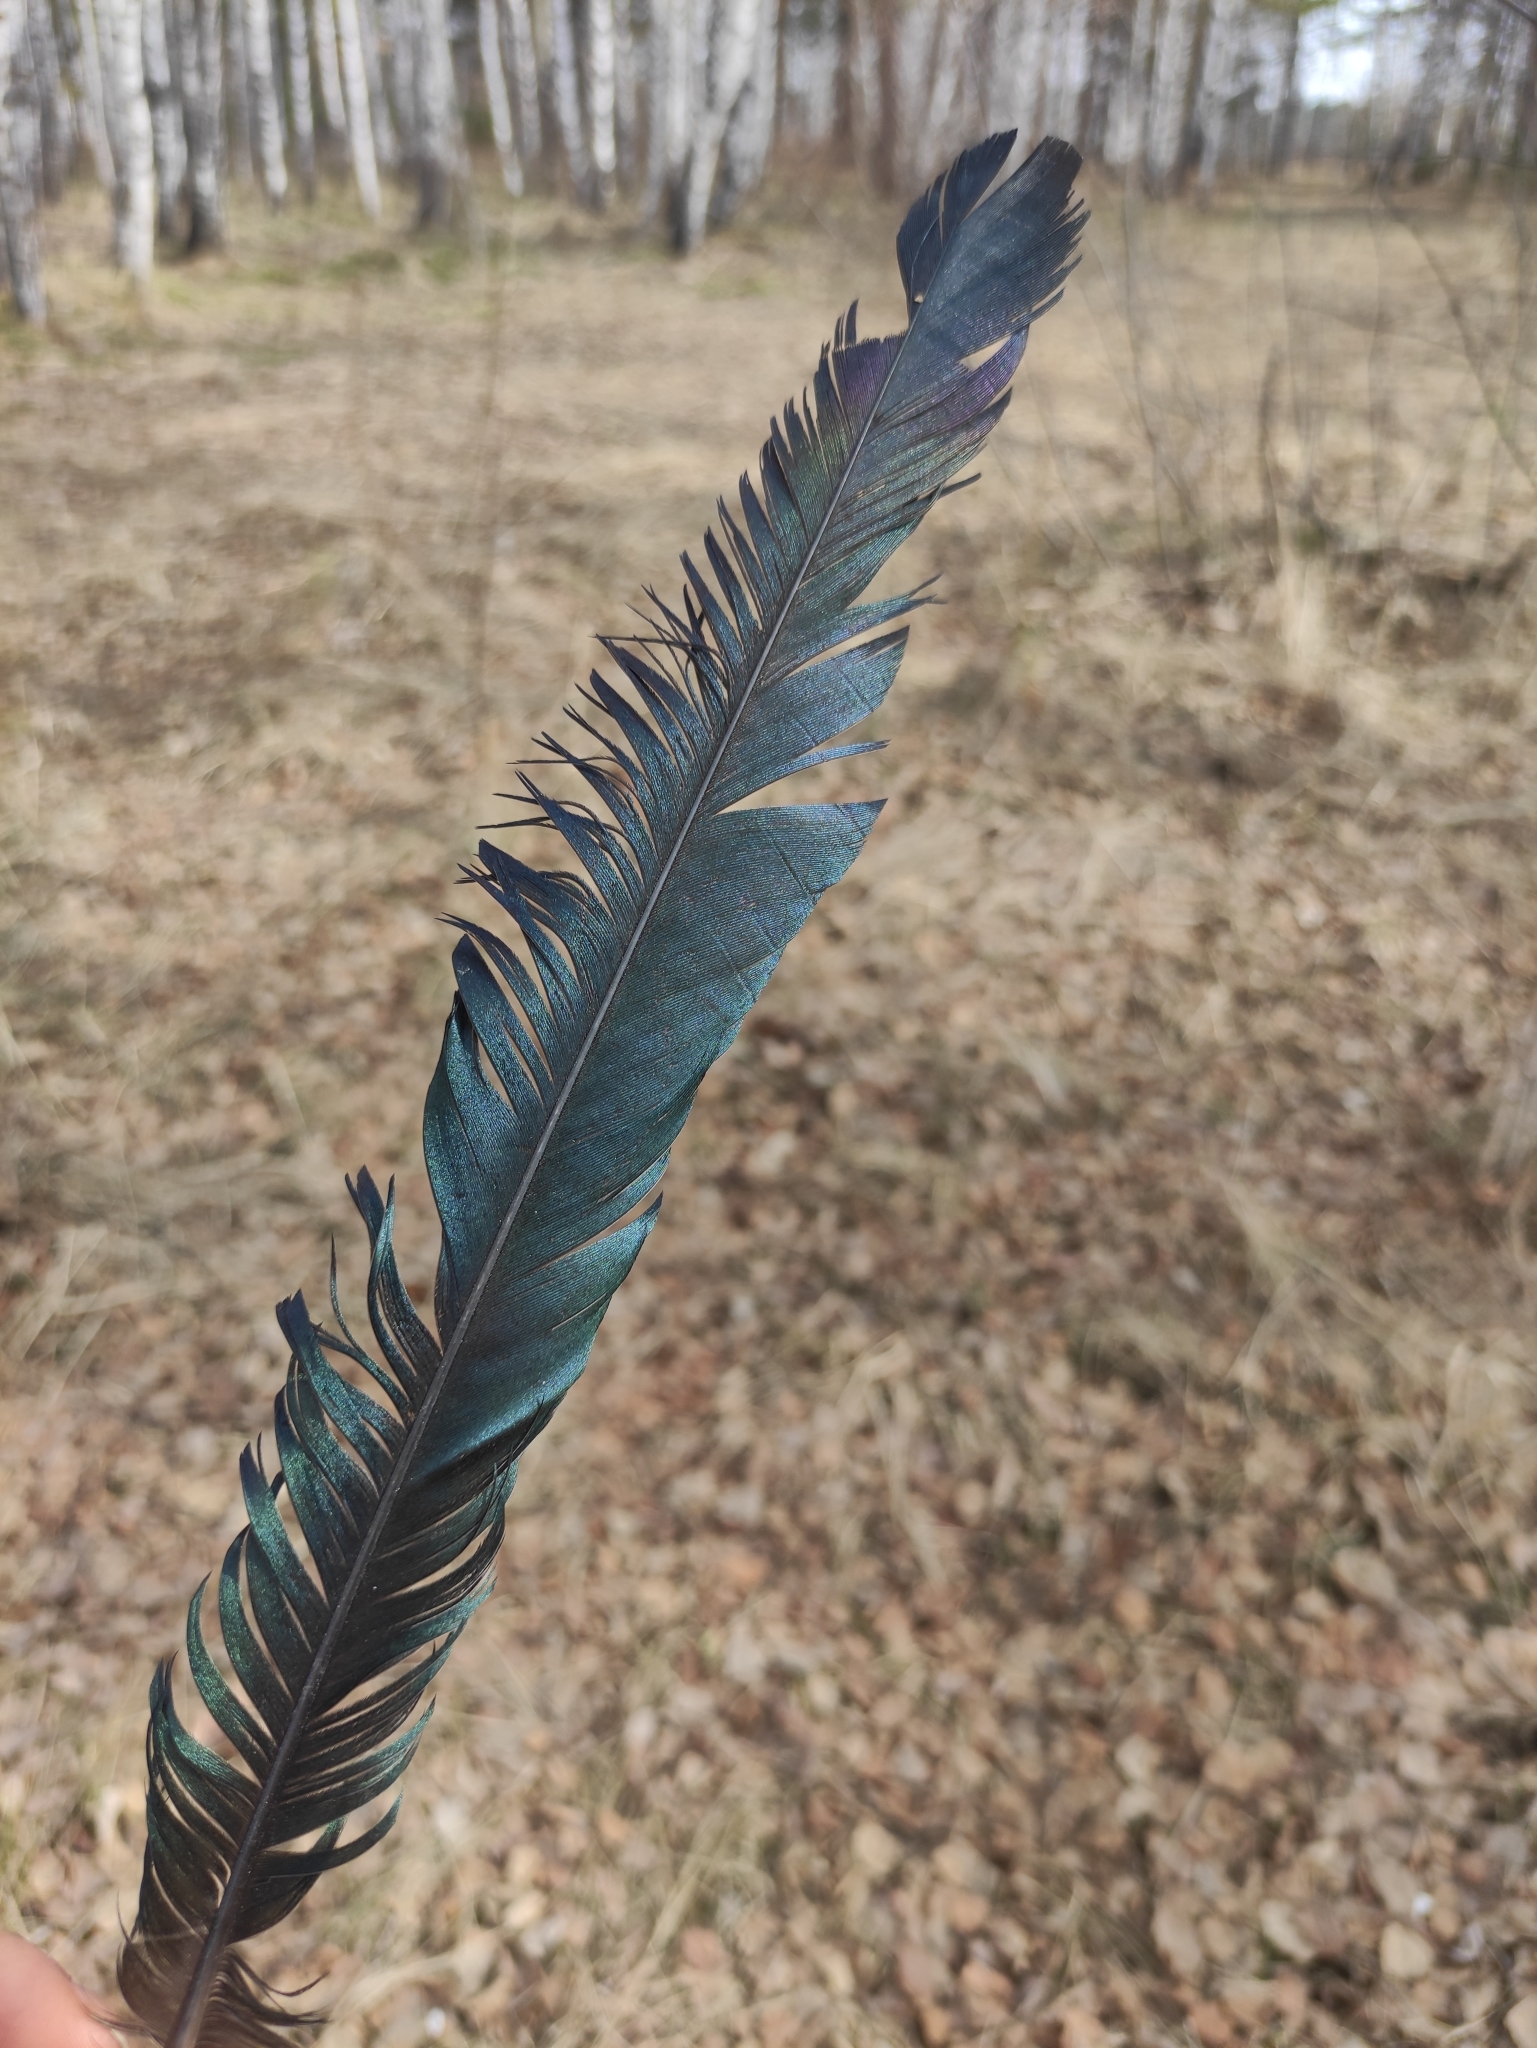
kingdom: Animalia
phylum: Chordata
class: Aves
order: Passeriformes
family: Corvidae
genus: Pica
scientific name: Pica pica
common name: Eurasian magpie
